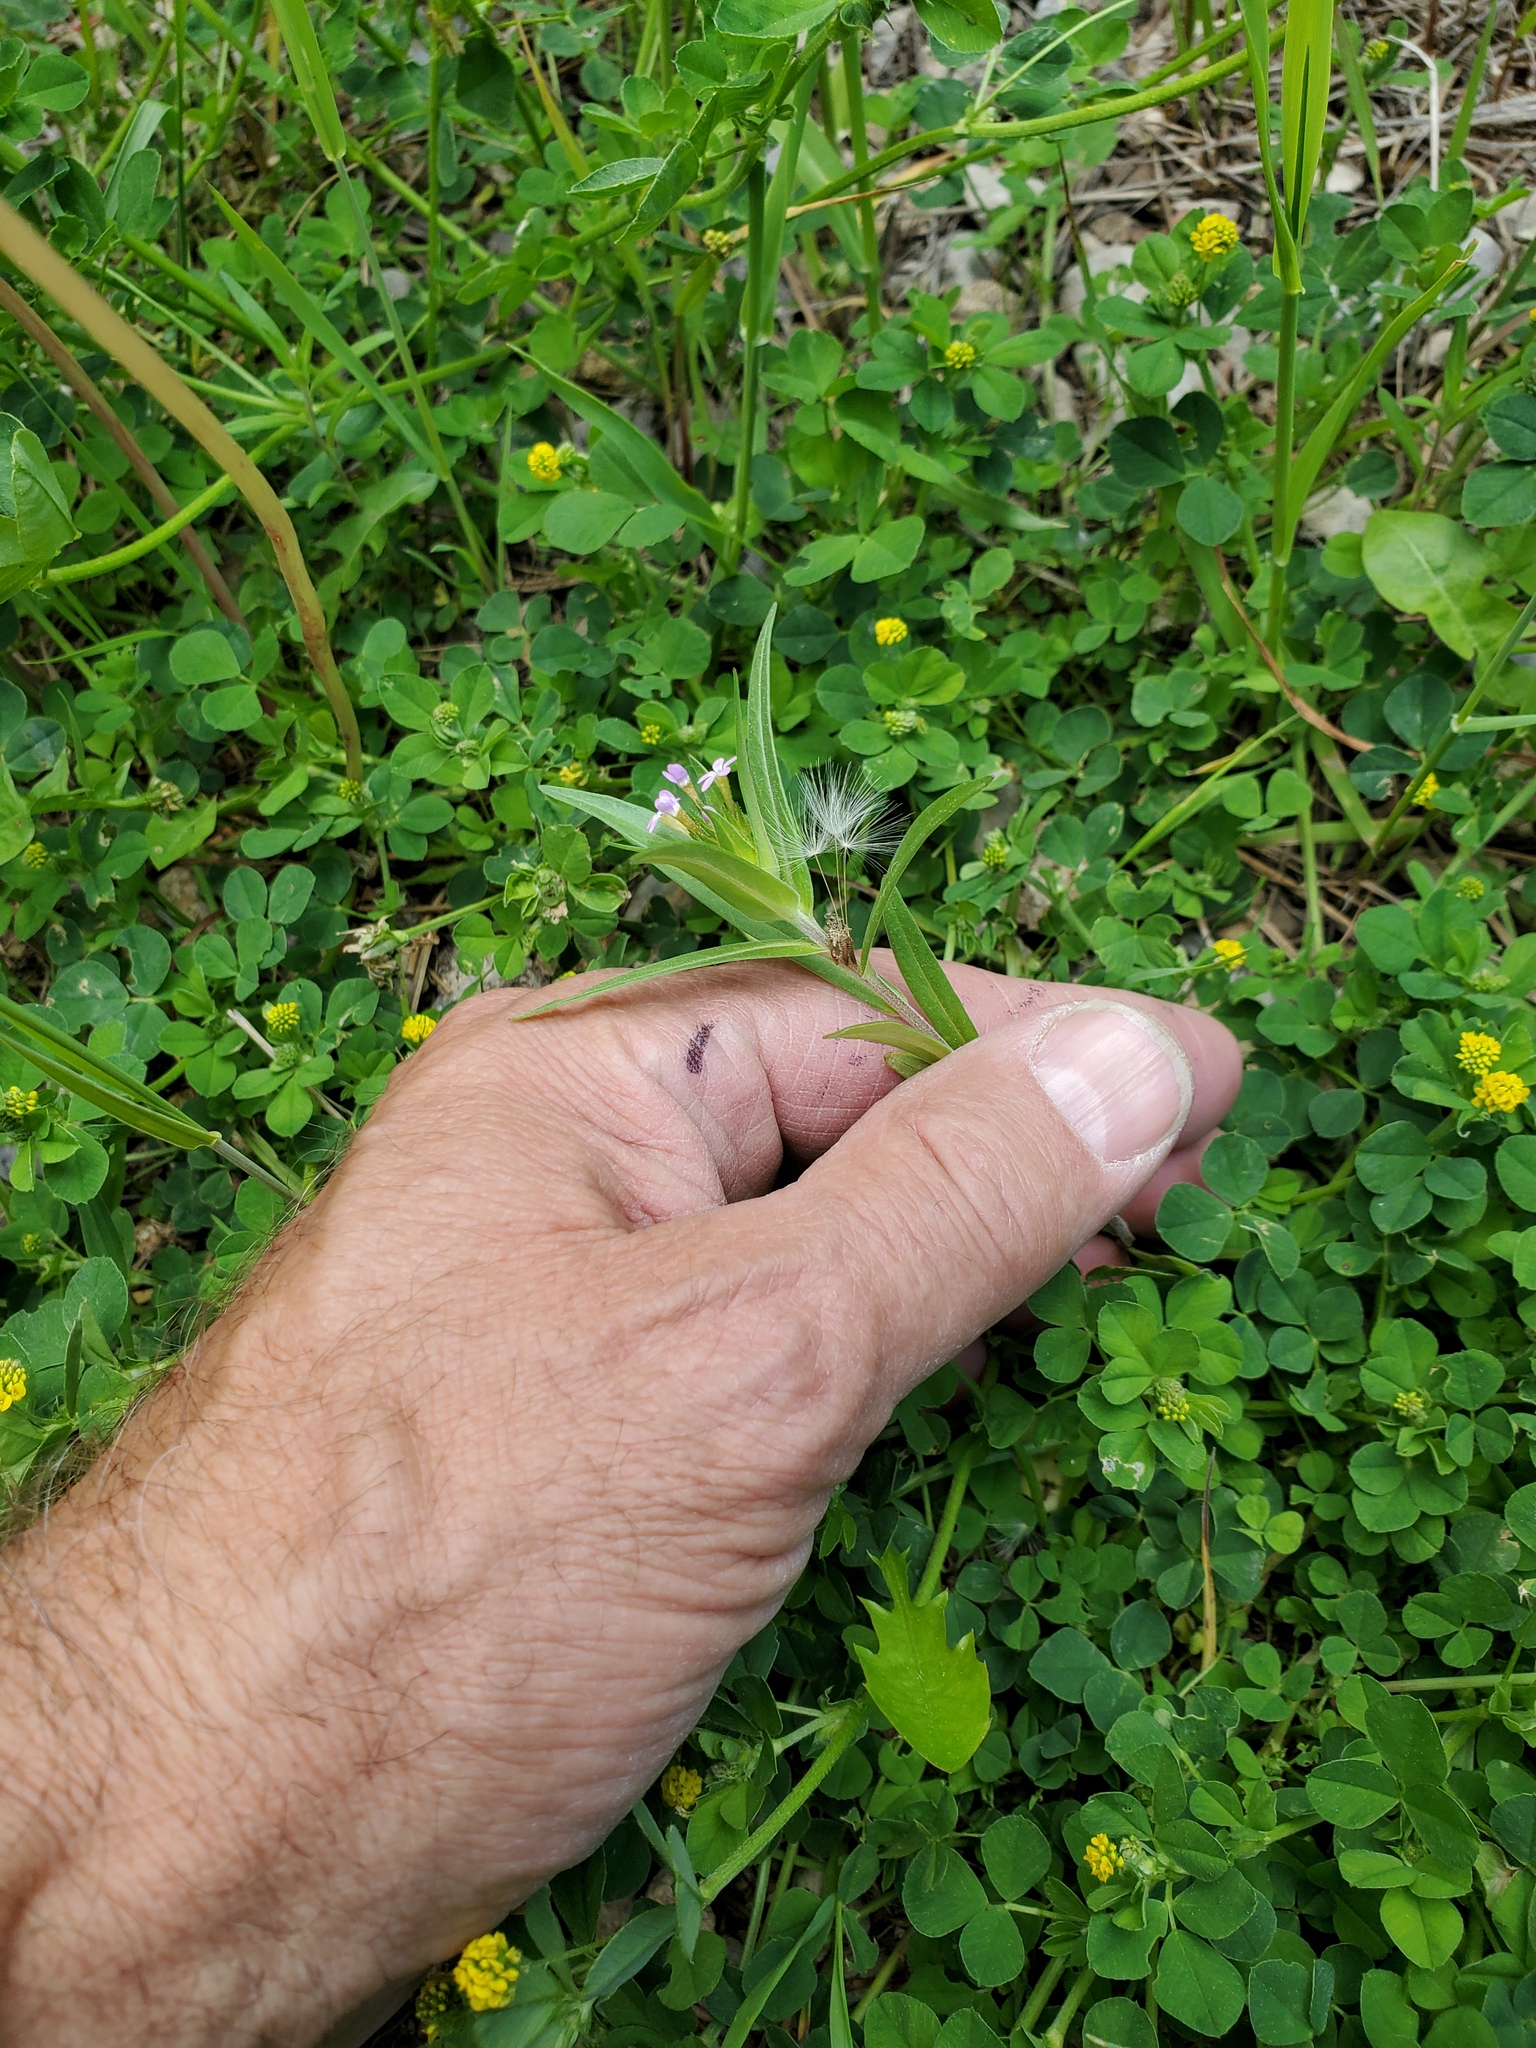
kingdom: Plantae
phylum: Tracheophyta
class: Magnoliopsida
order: Ericales
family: Polemoniaceae
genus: Collomia
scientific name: Collomia linearis
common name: Tiny trumpet
